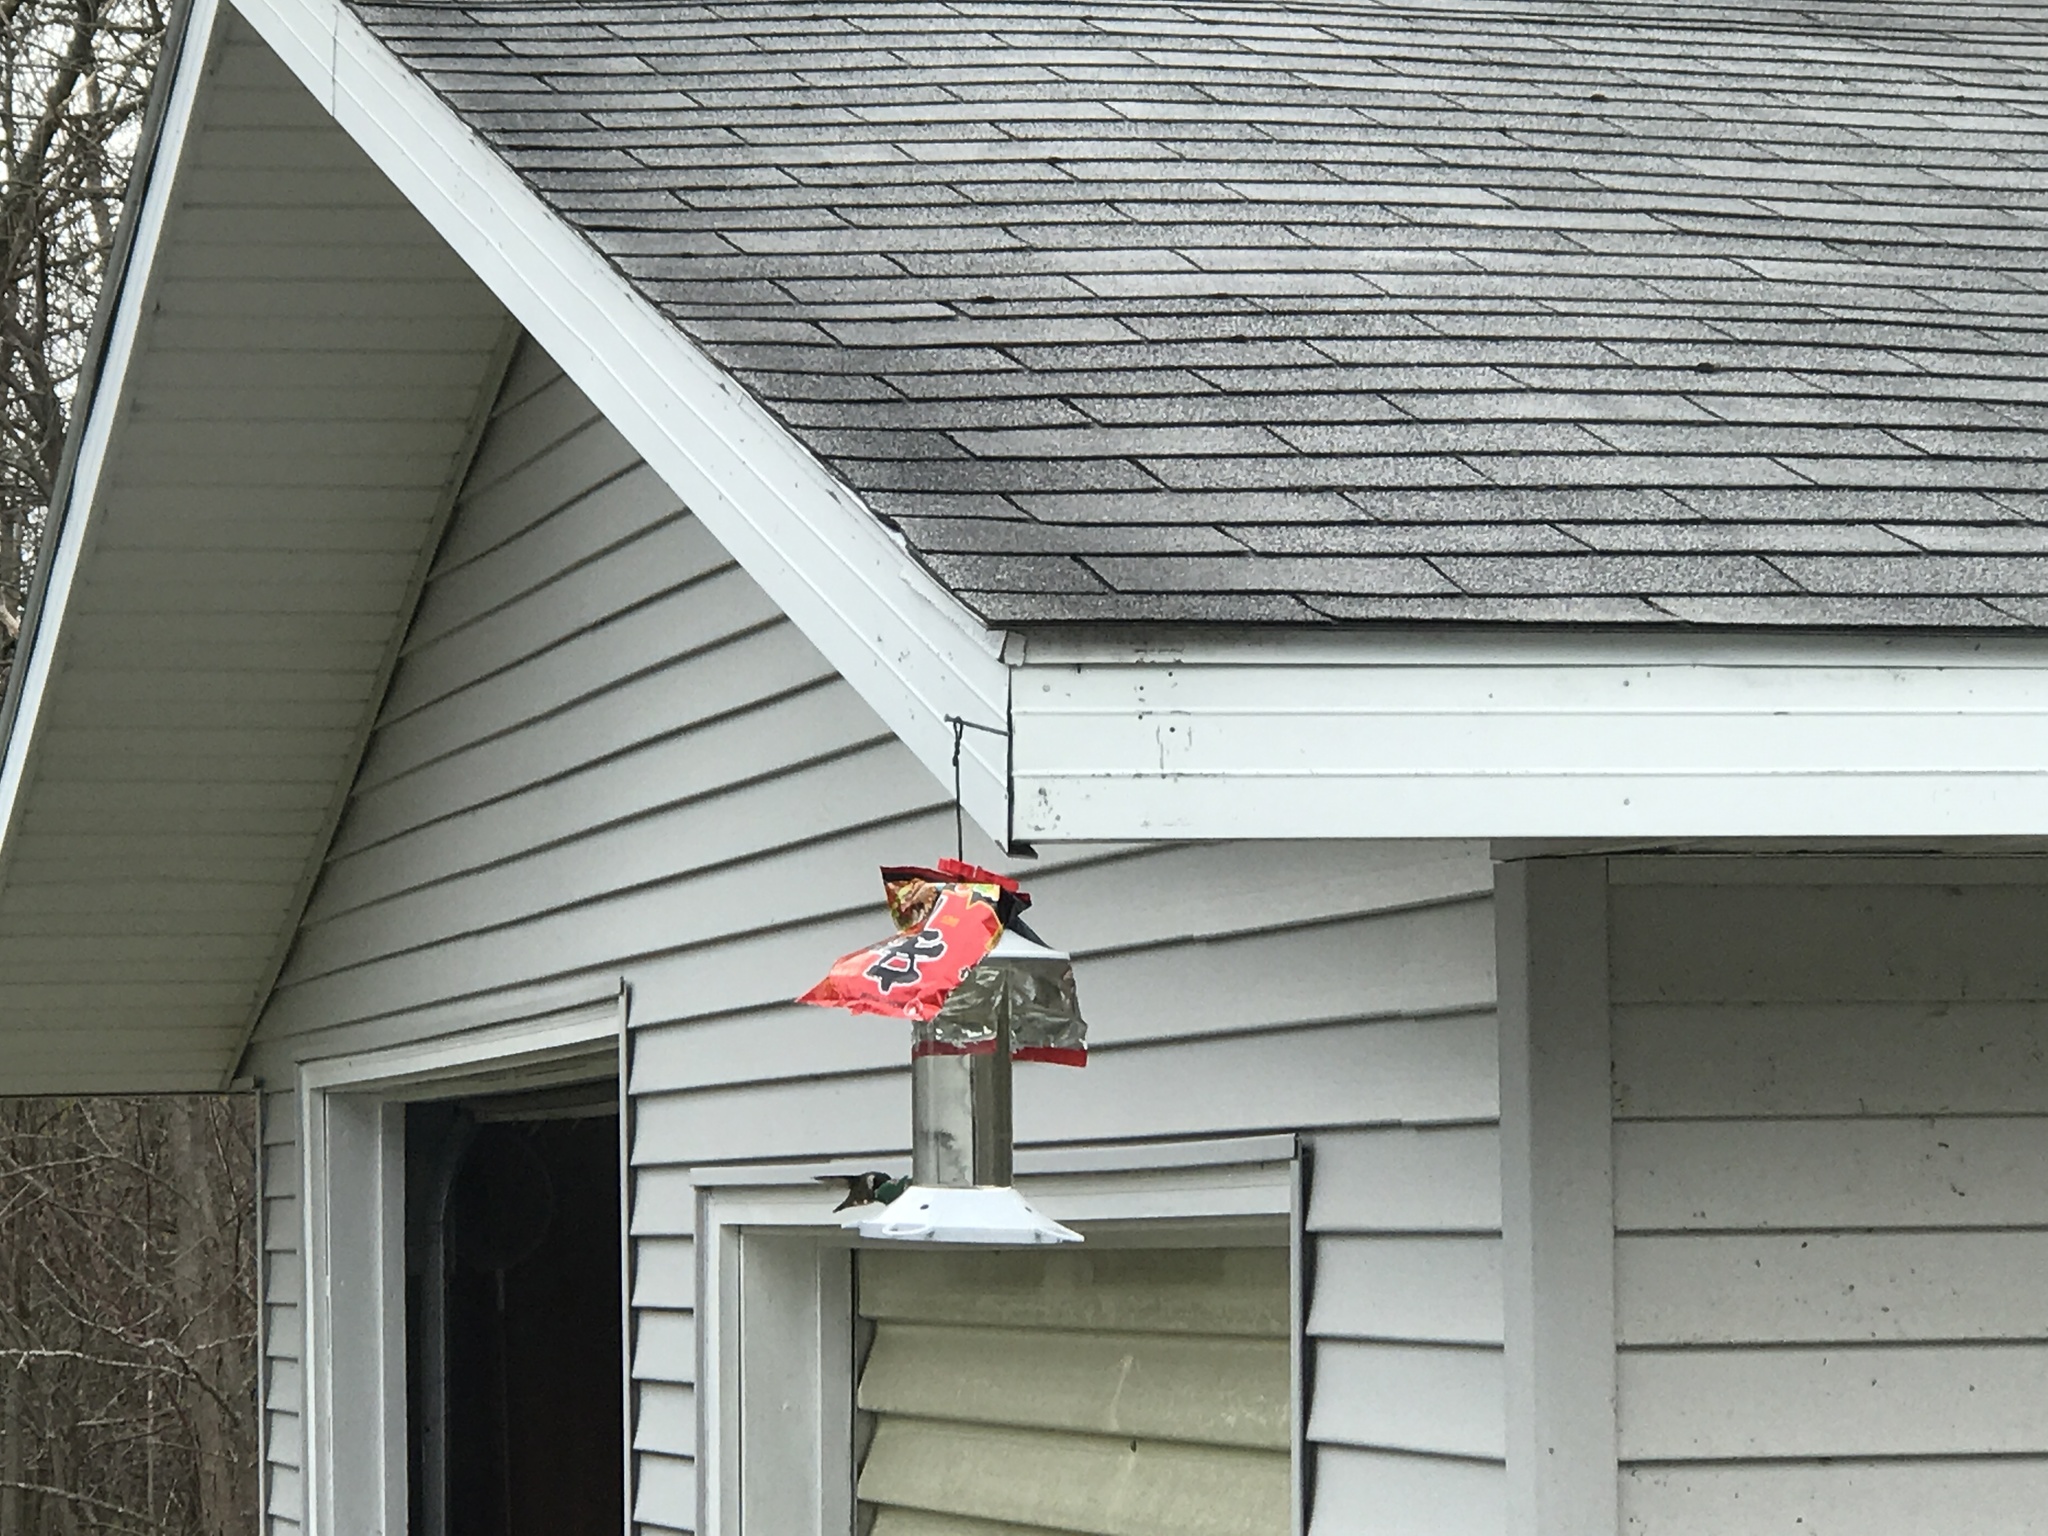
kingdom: Animalia
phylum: Chordata
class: Aves
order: Apodiformes
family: Trochilidae
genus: Archilochus
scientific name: Archilochus colubris
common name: Ruby-throated hummingbird
